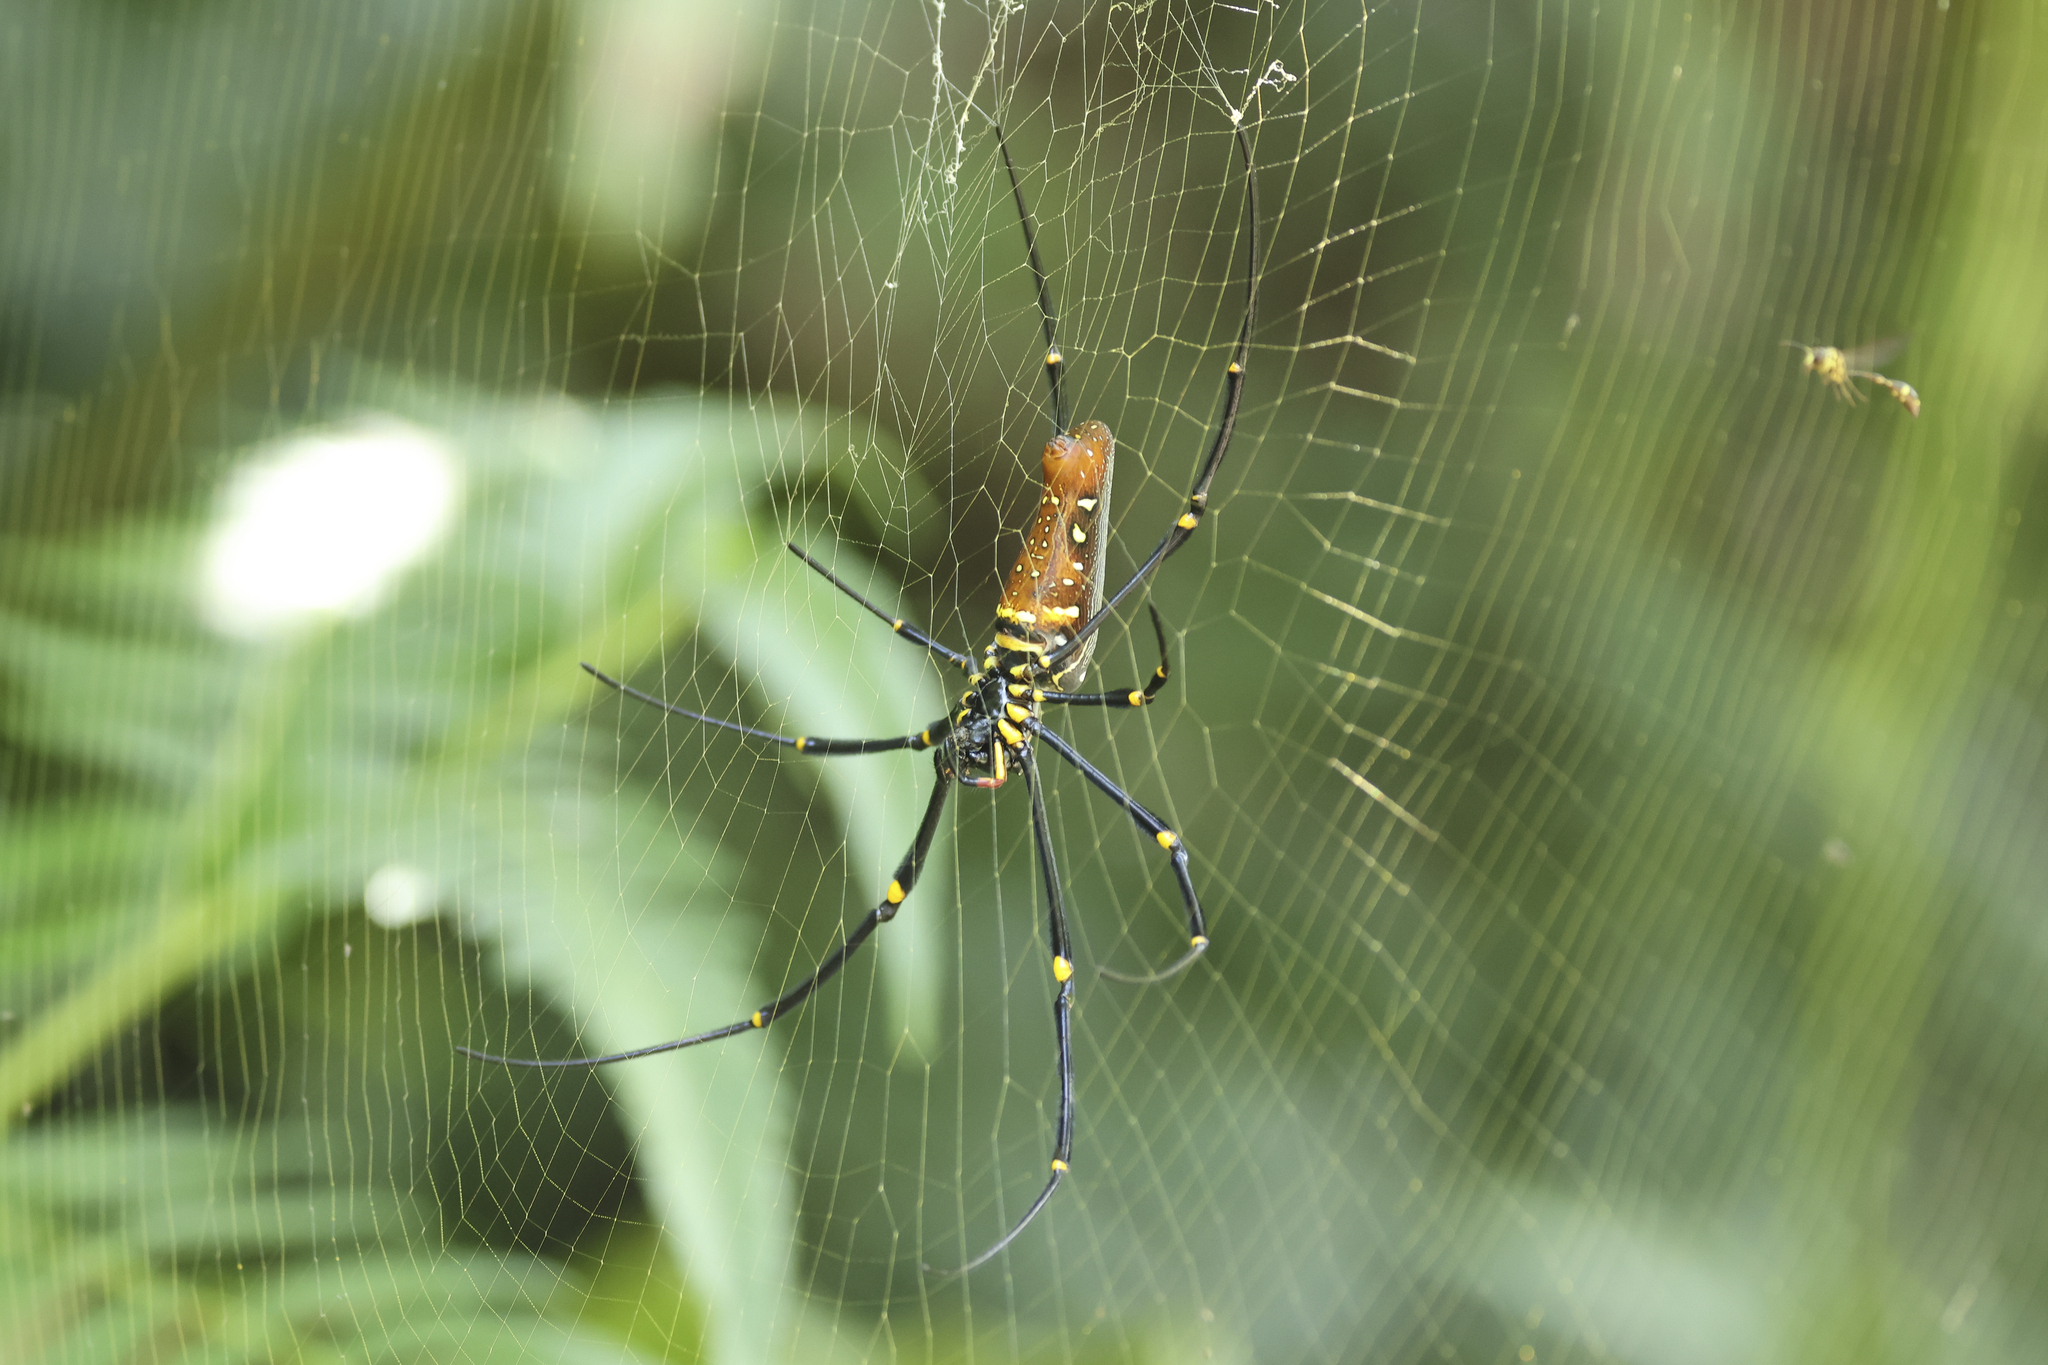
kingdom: Animalia
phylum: Arthropoda
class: Arachnida
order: Araneae
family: Araneidae
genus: Nephila
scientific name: Nephila pilipes
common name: Giant golden orb weaver
